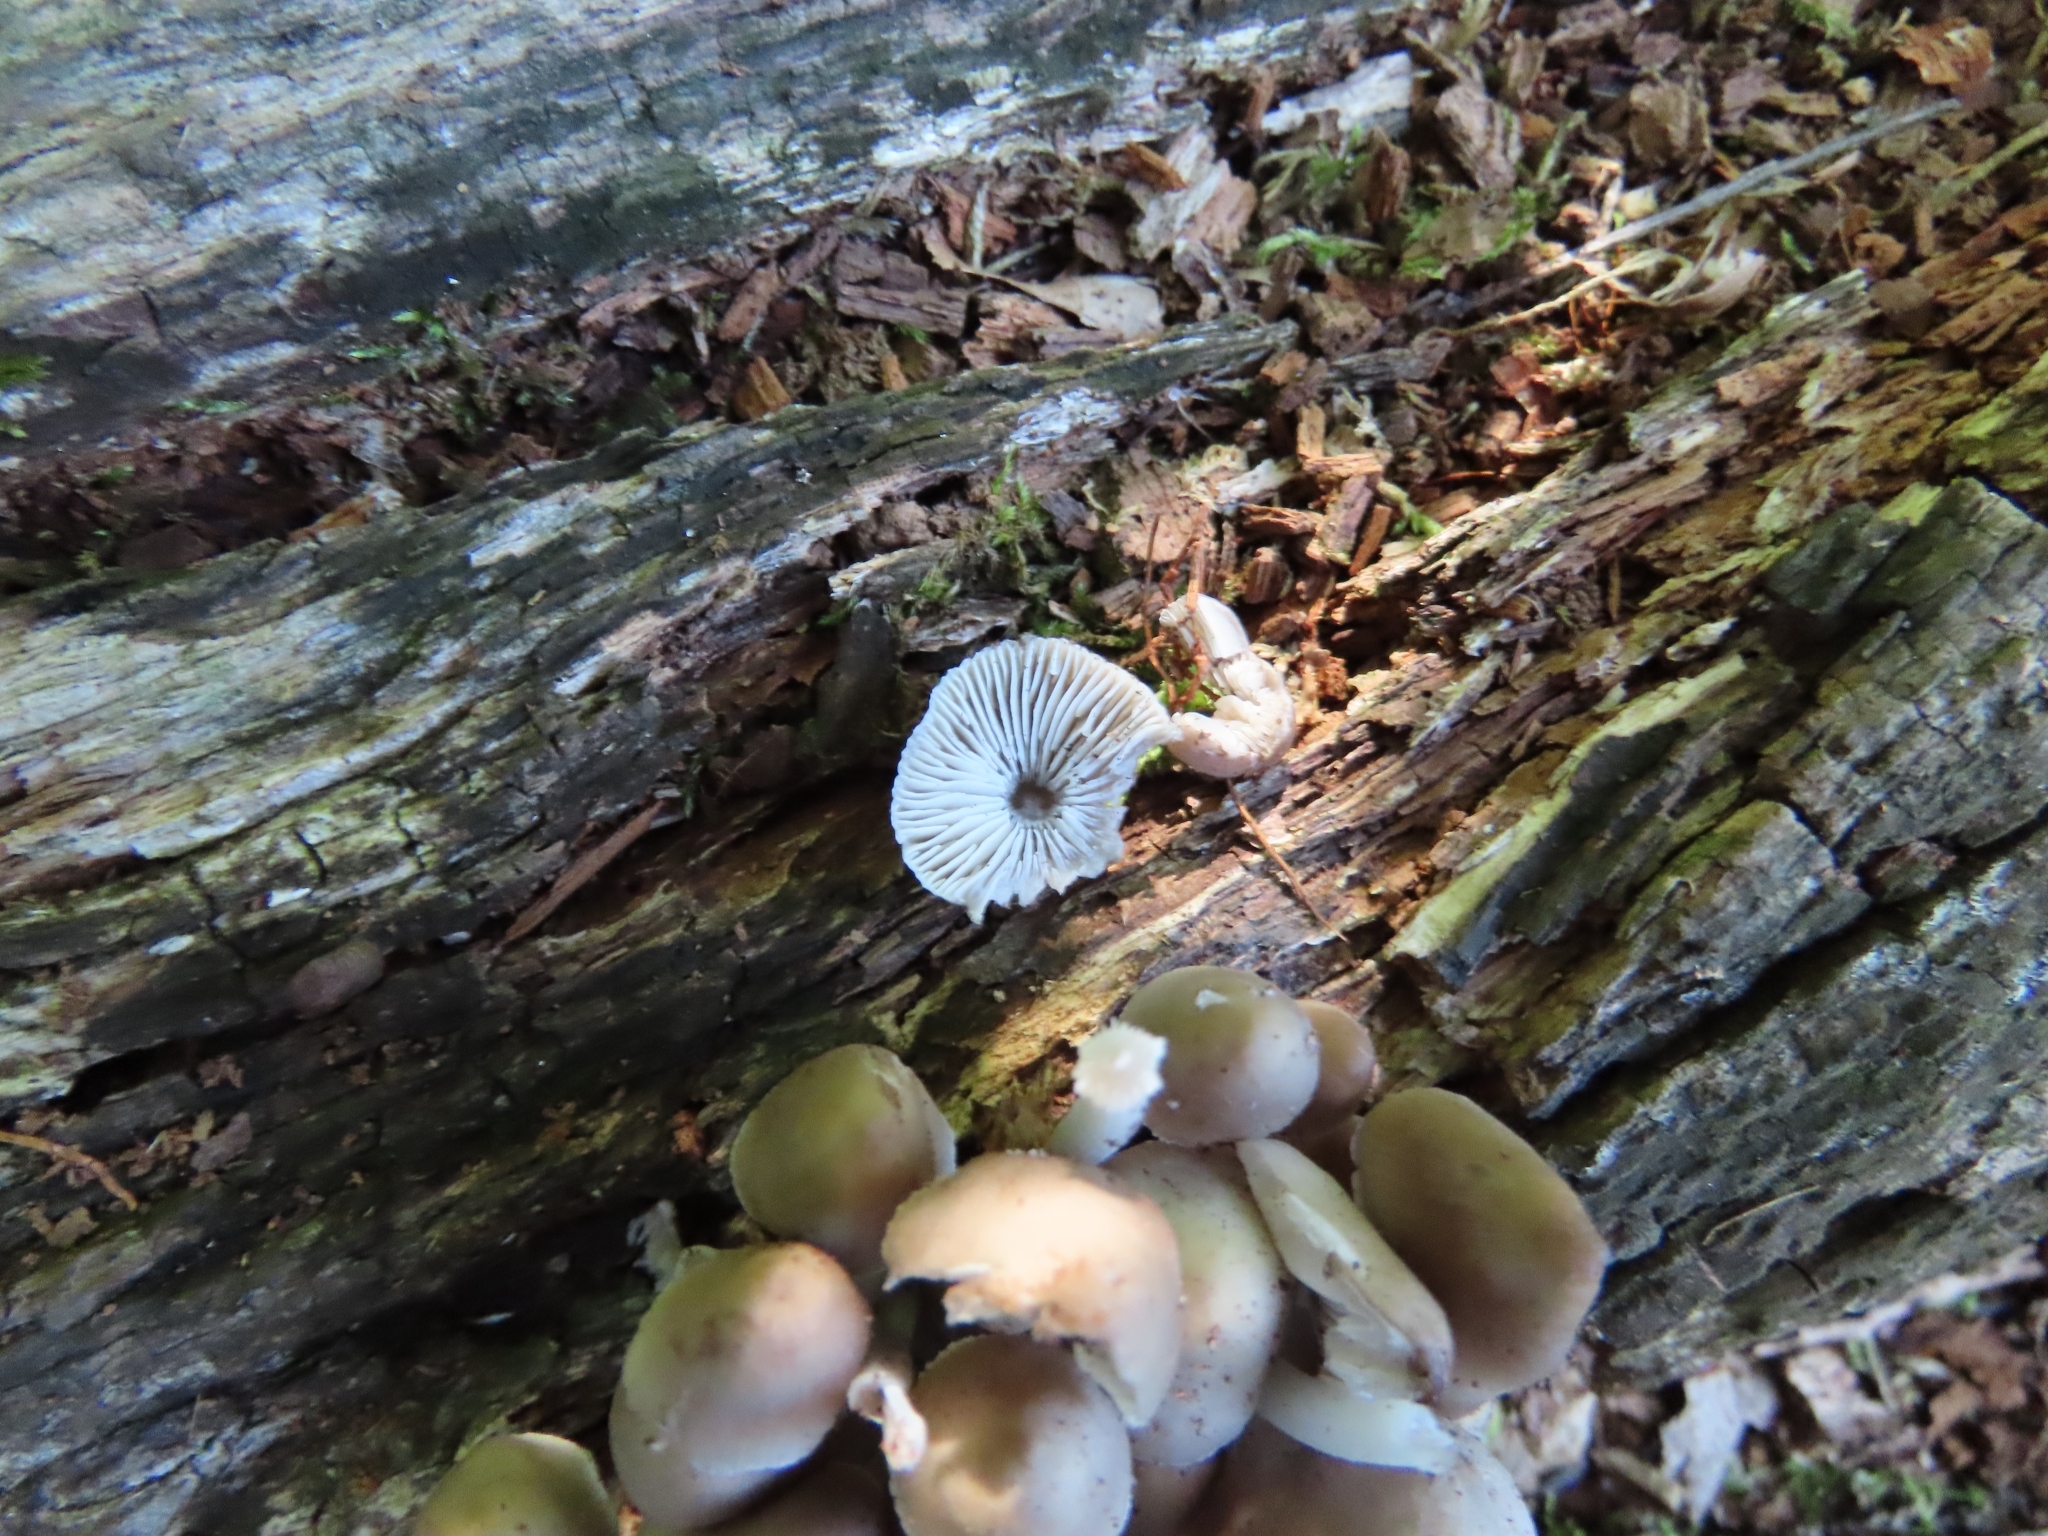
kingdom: Fungi
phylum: Basidiomycota
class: Agaricomycetes
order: Agaricales
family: Mycenaceae
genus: Mycena
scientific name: Mycena inclinata
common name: Clustered bonnet
